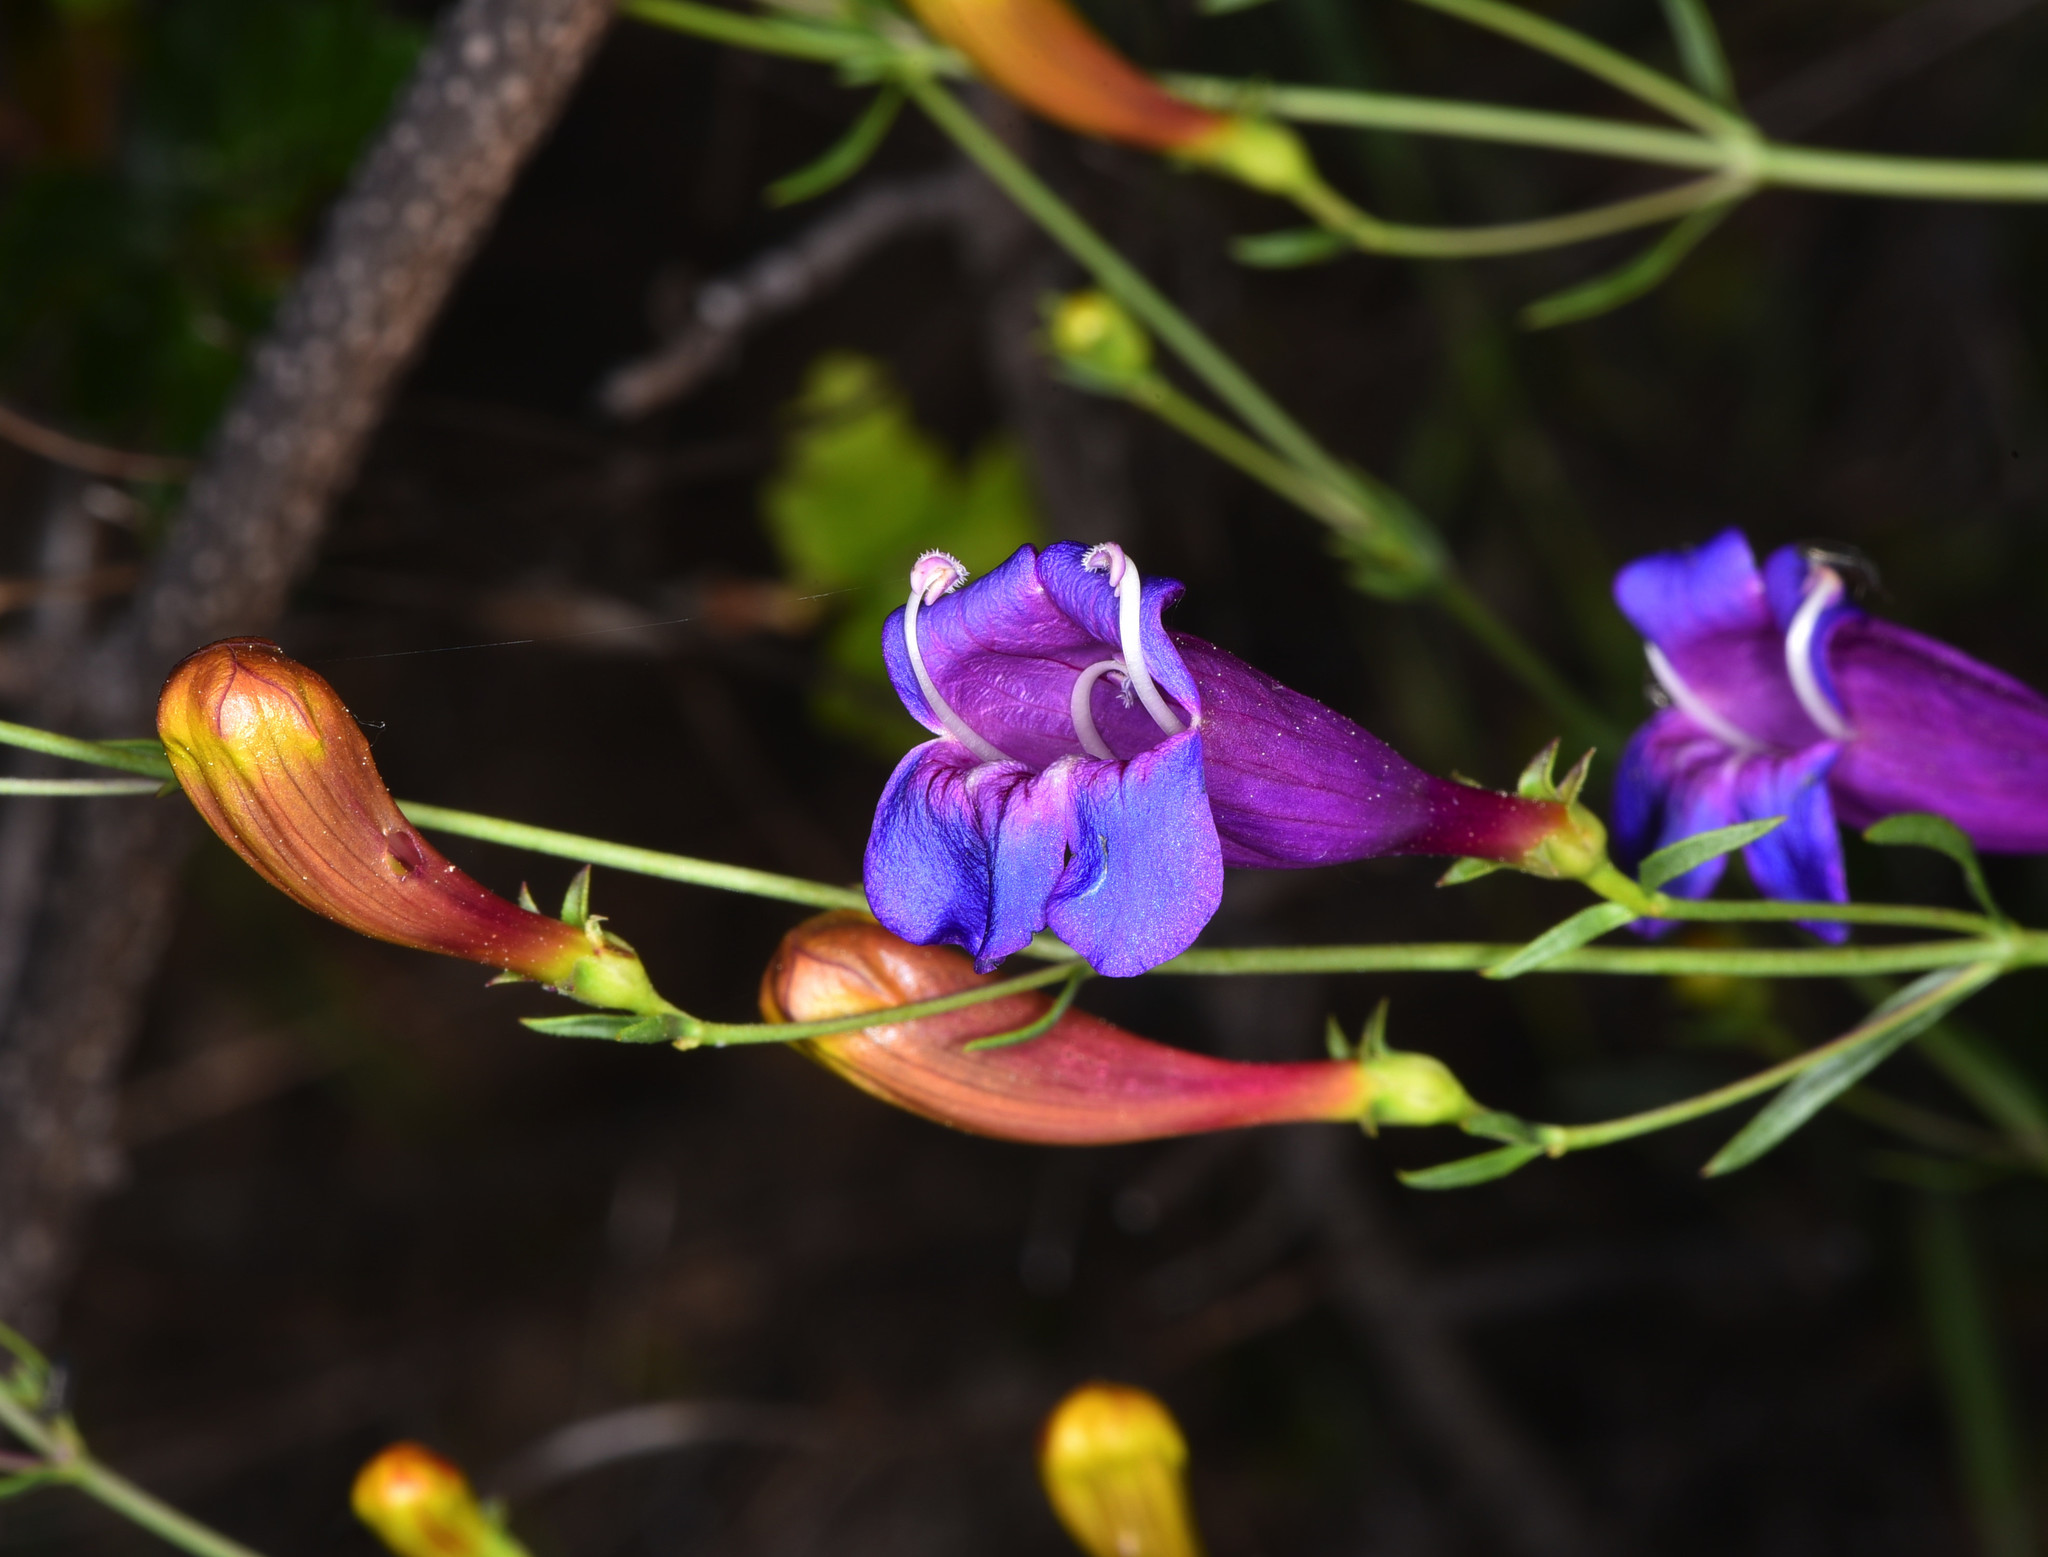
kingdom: Plantae
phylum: Tracheophyta
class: Magnoliopsida
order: Lamiales
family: Plantaginaceae
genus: Penstemon
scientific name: Penstemon heterophyllus
